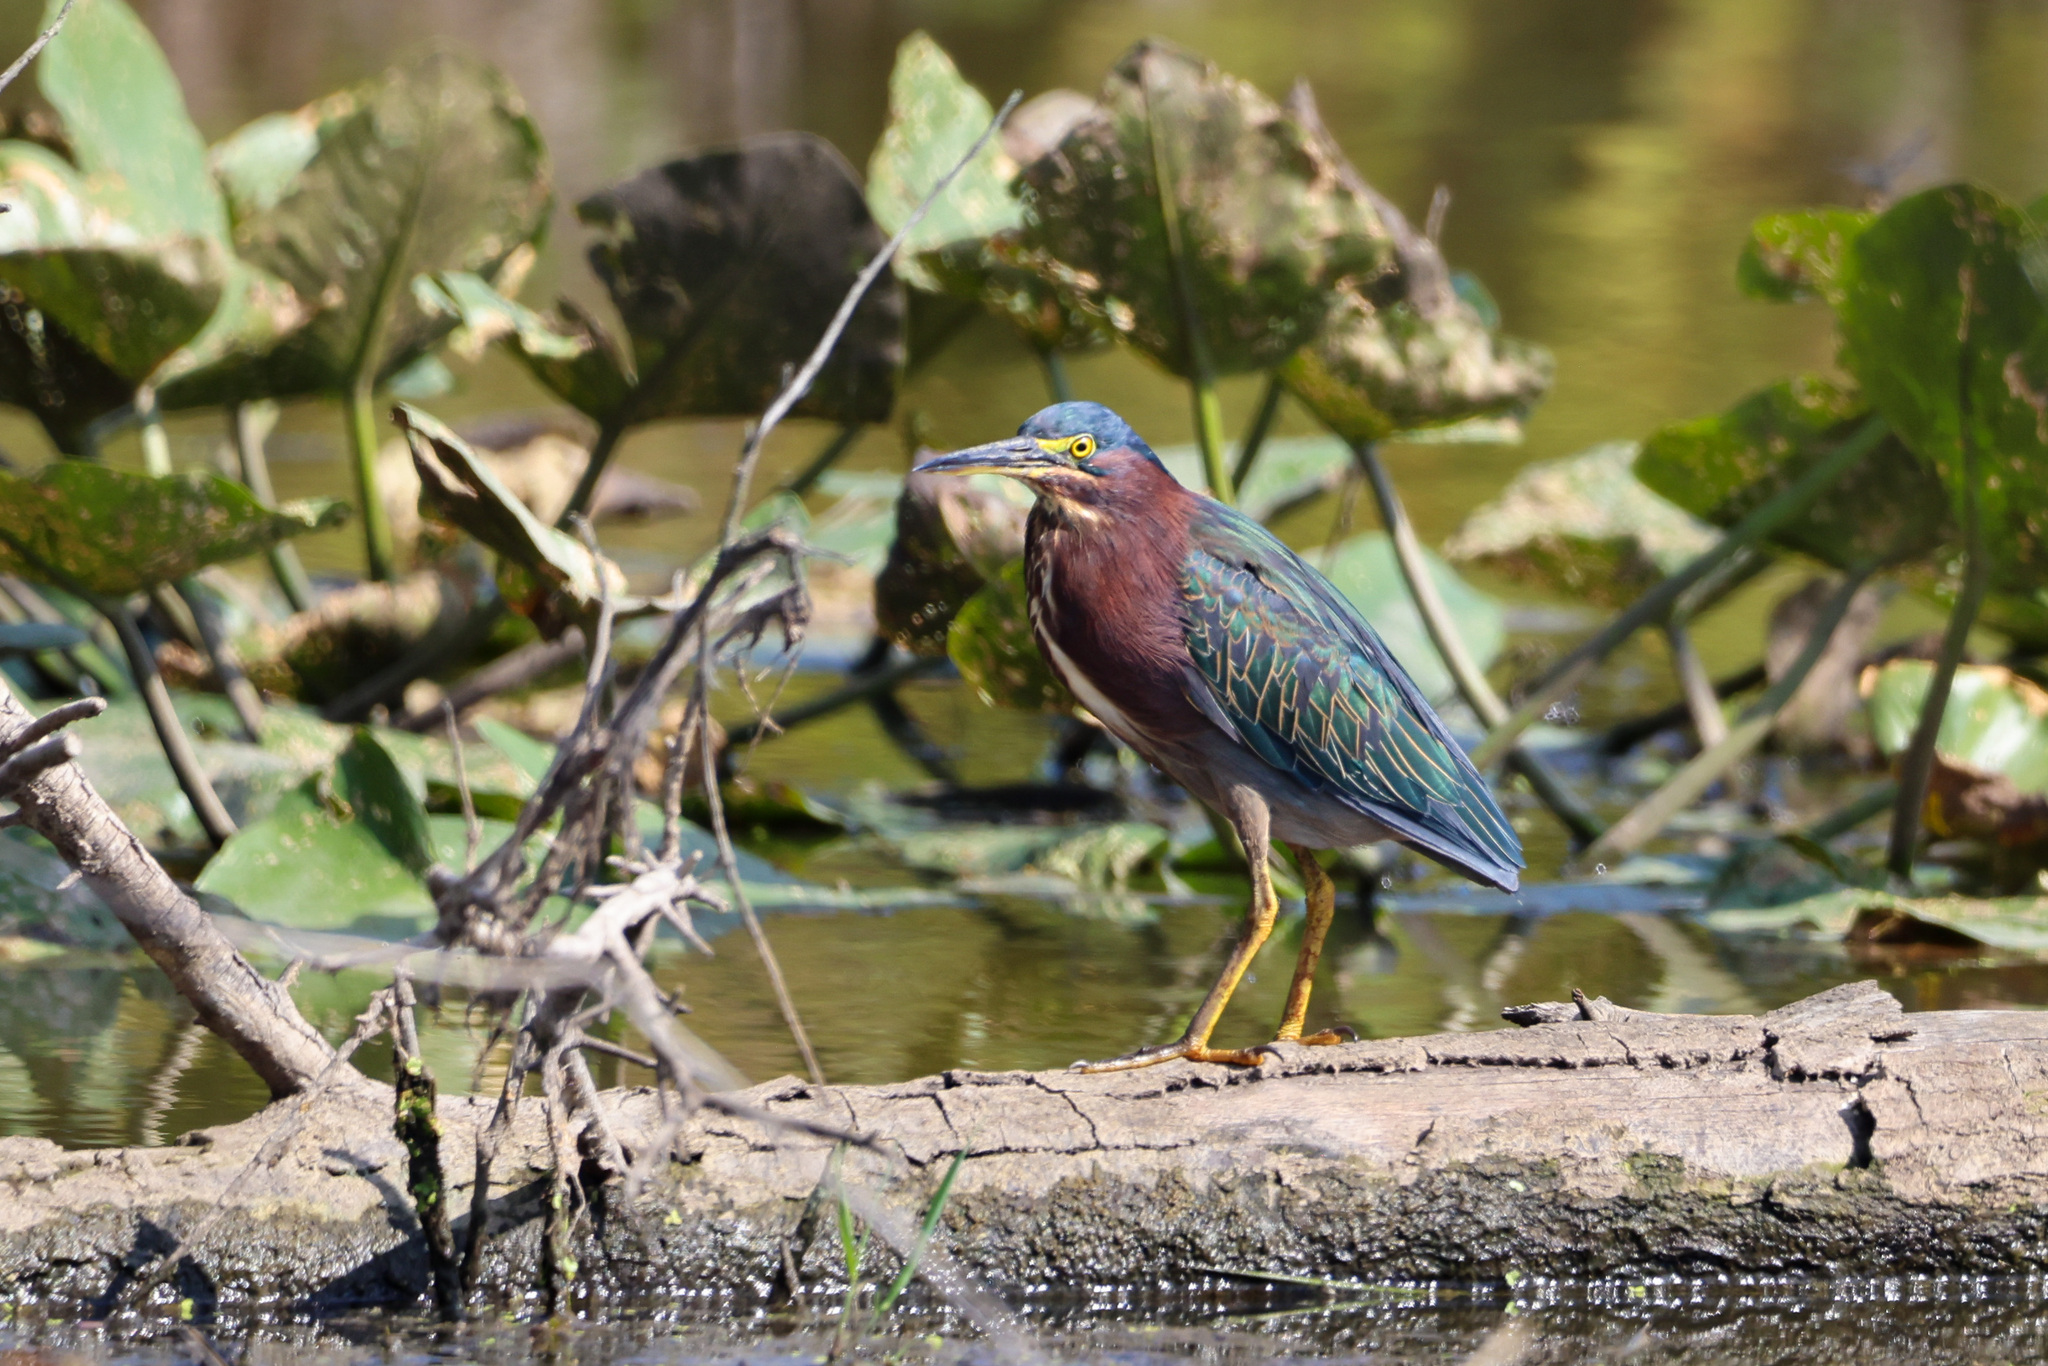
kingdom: Animalia
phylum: Chordata
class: Aves
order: Pelecaniformes
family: Ardeidae
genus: Butorides
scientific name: Butorides virescens
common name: Green heron
